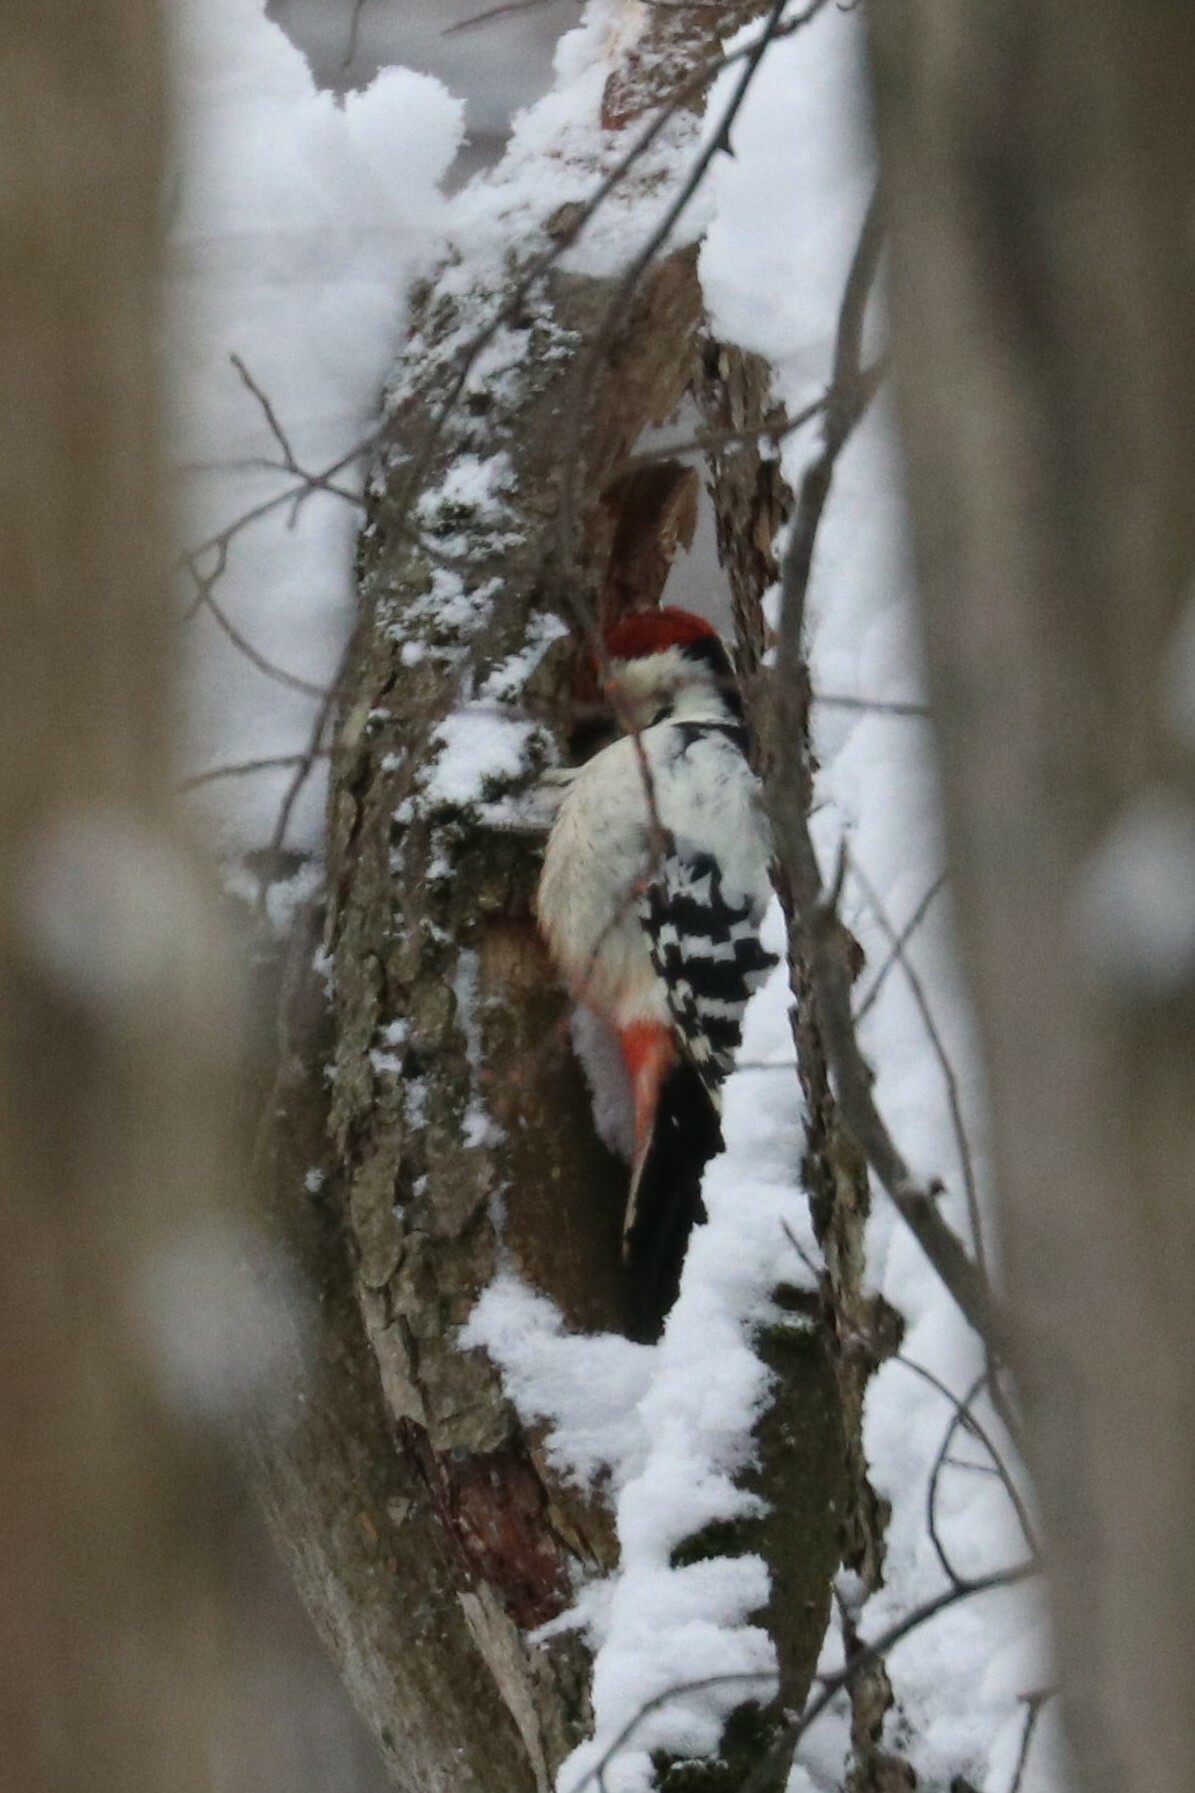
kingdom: Animalia
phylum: Chordata
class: Aves
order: Piciformes
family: Picidae
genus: Dendrocopos
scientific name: Dendrocopos leucotos
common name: White-backed woodpecker
